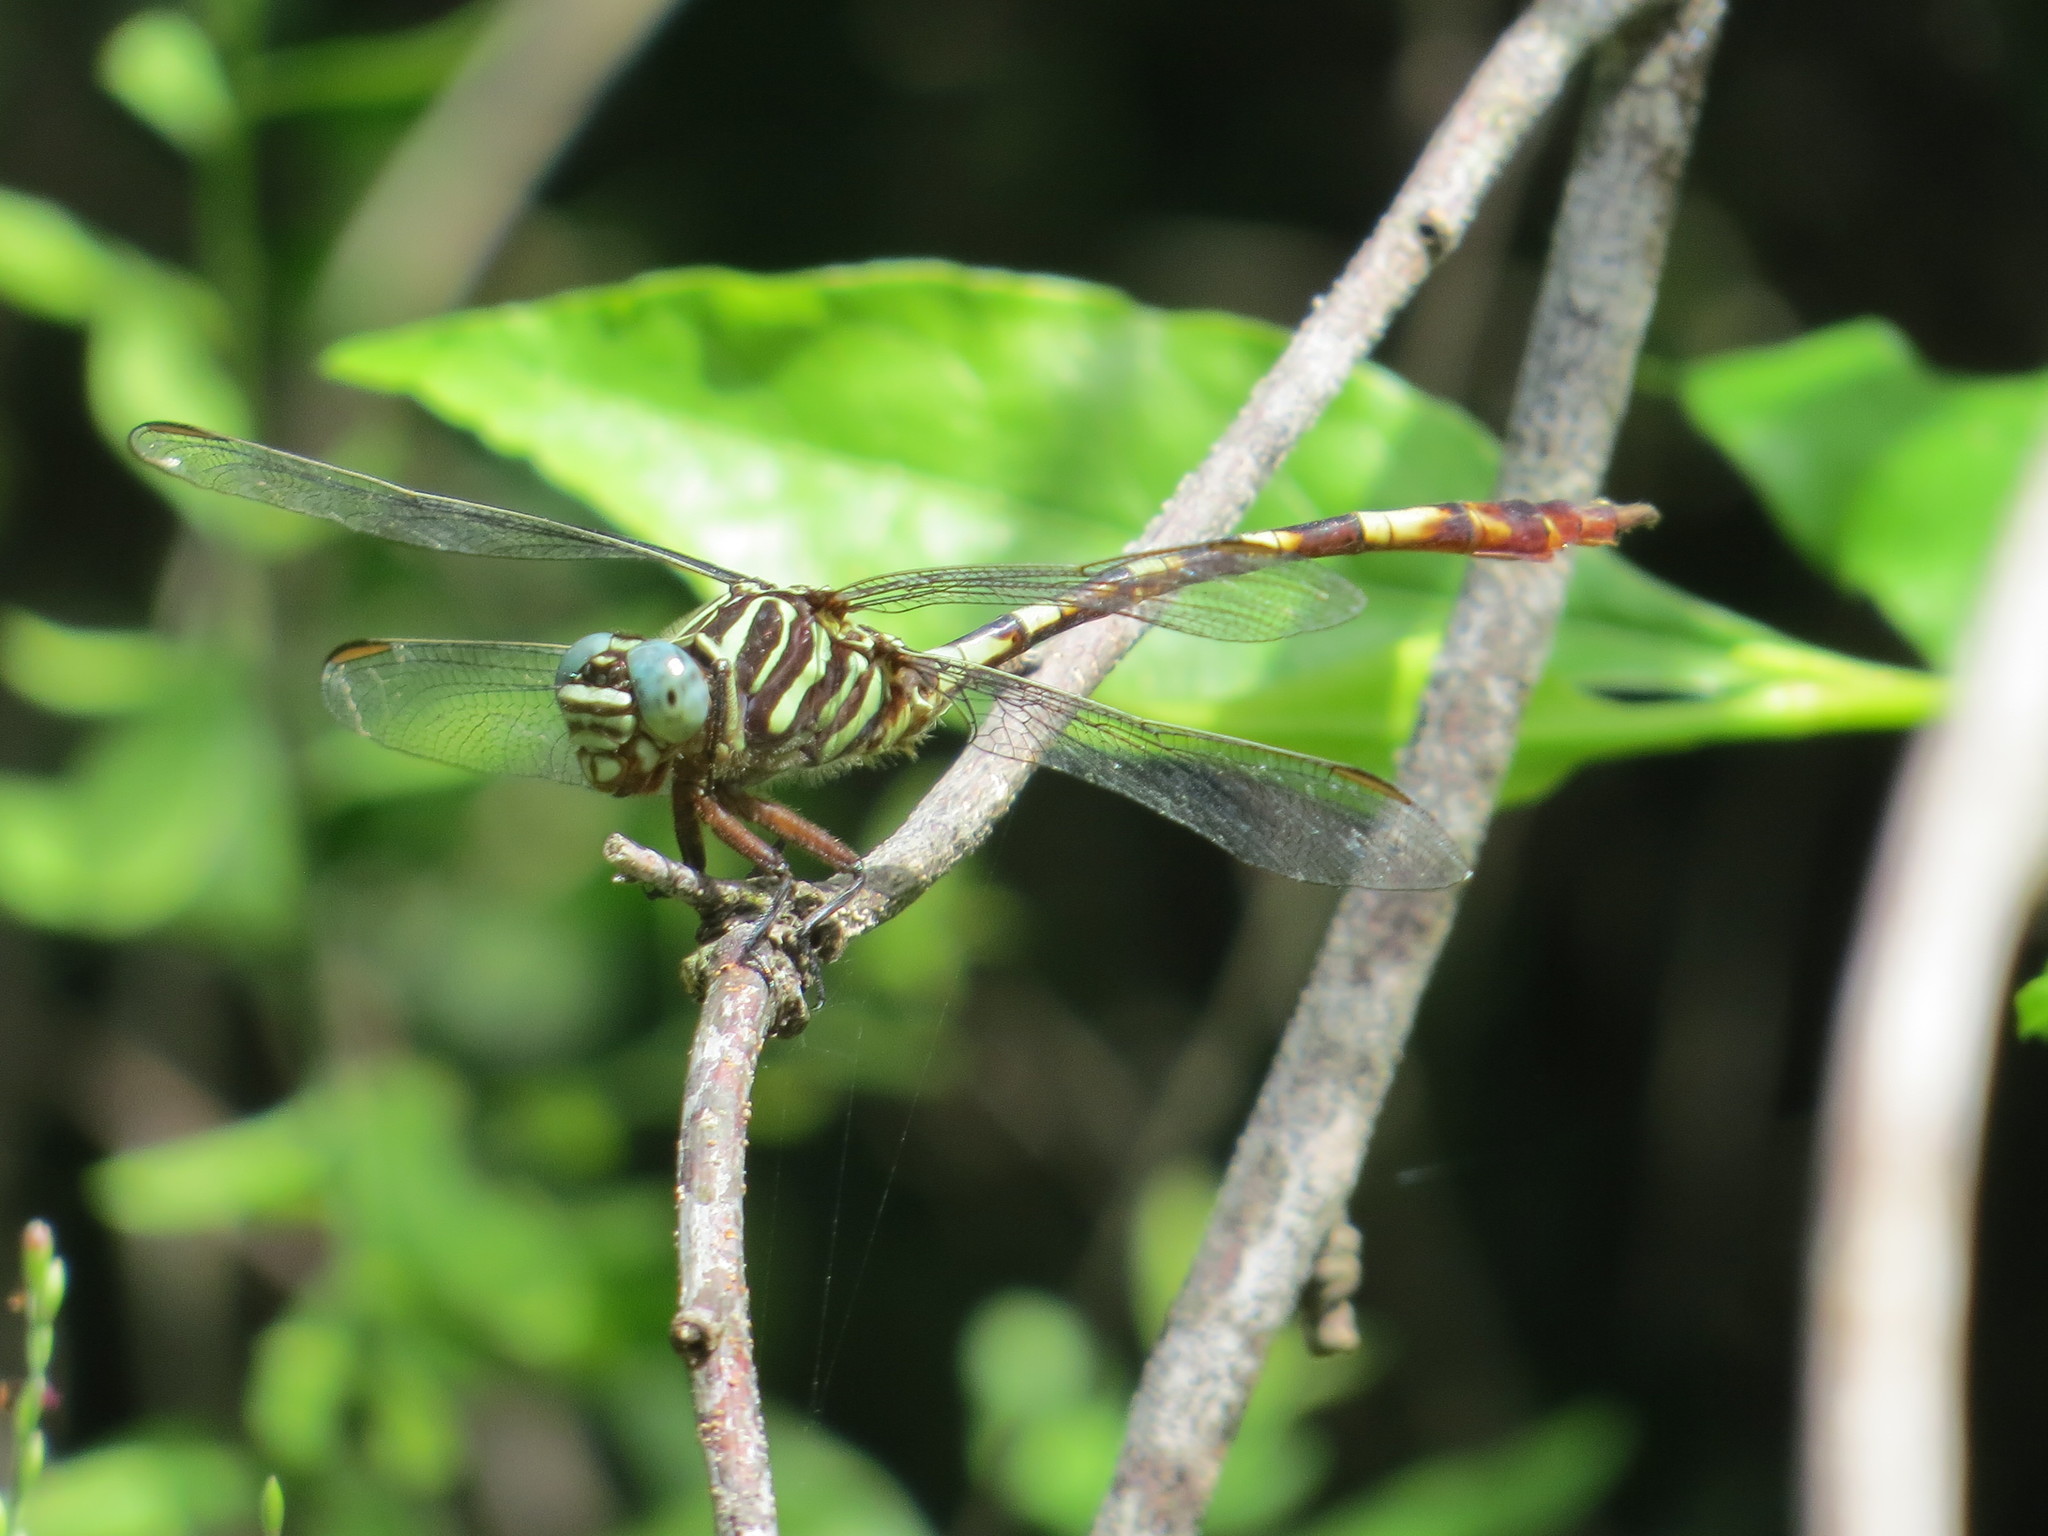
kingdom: Animalia
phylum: Arthropoda
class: Insecta
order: Odonata
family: Gomphidae
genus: Aphylla
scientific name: Aphylla angustifolia
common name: Broad-striped forceptail
